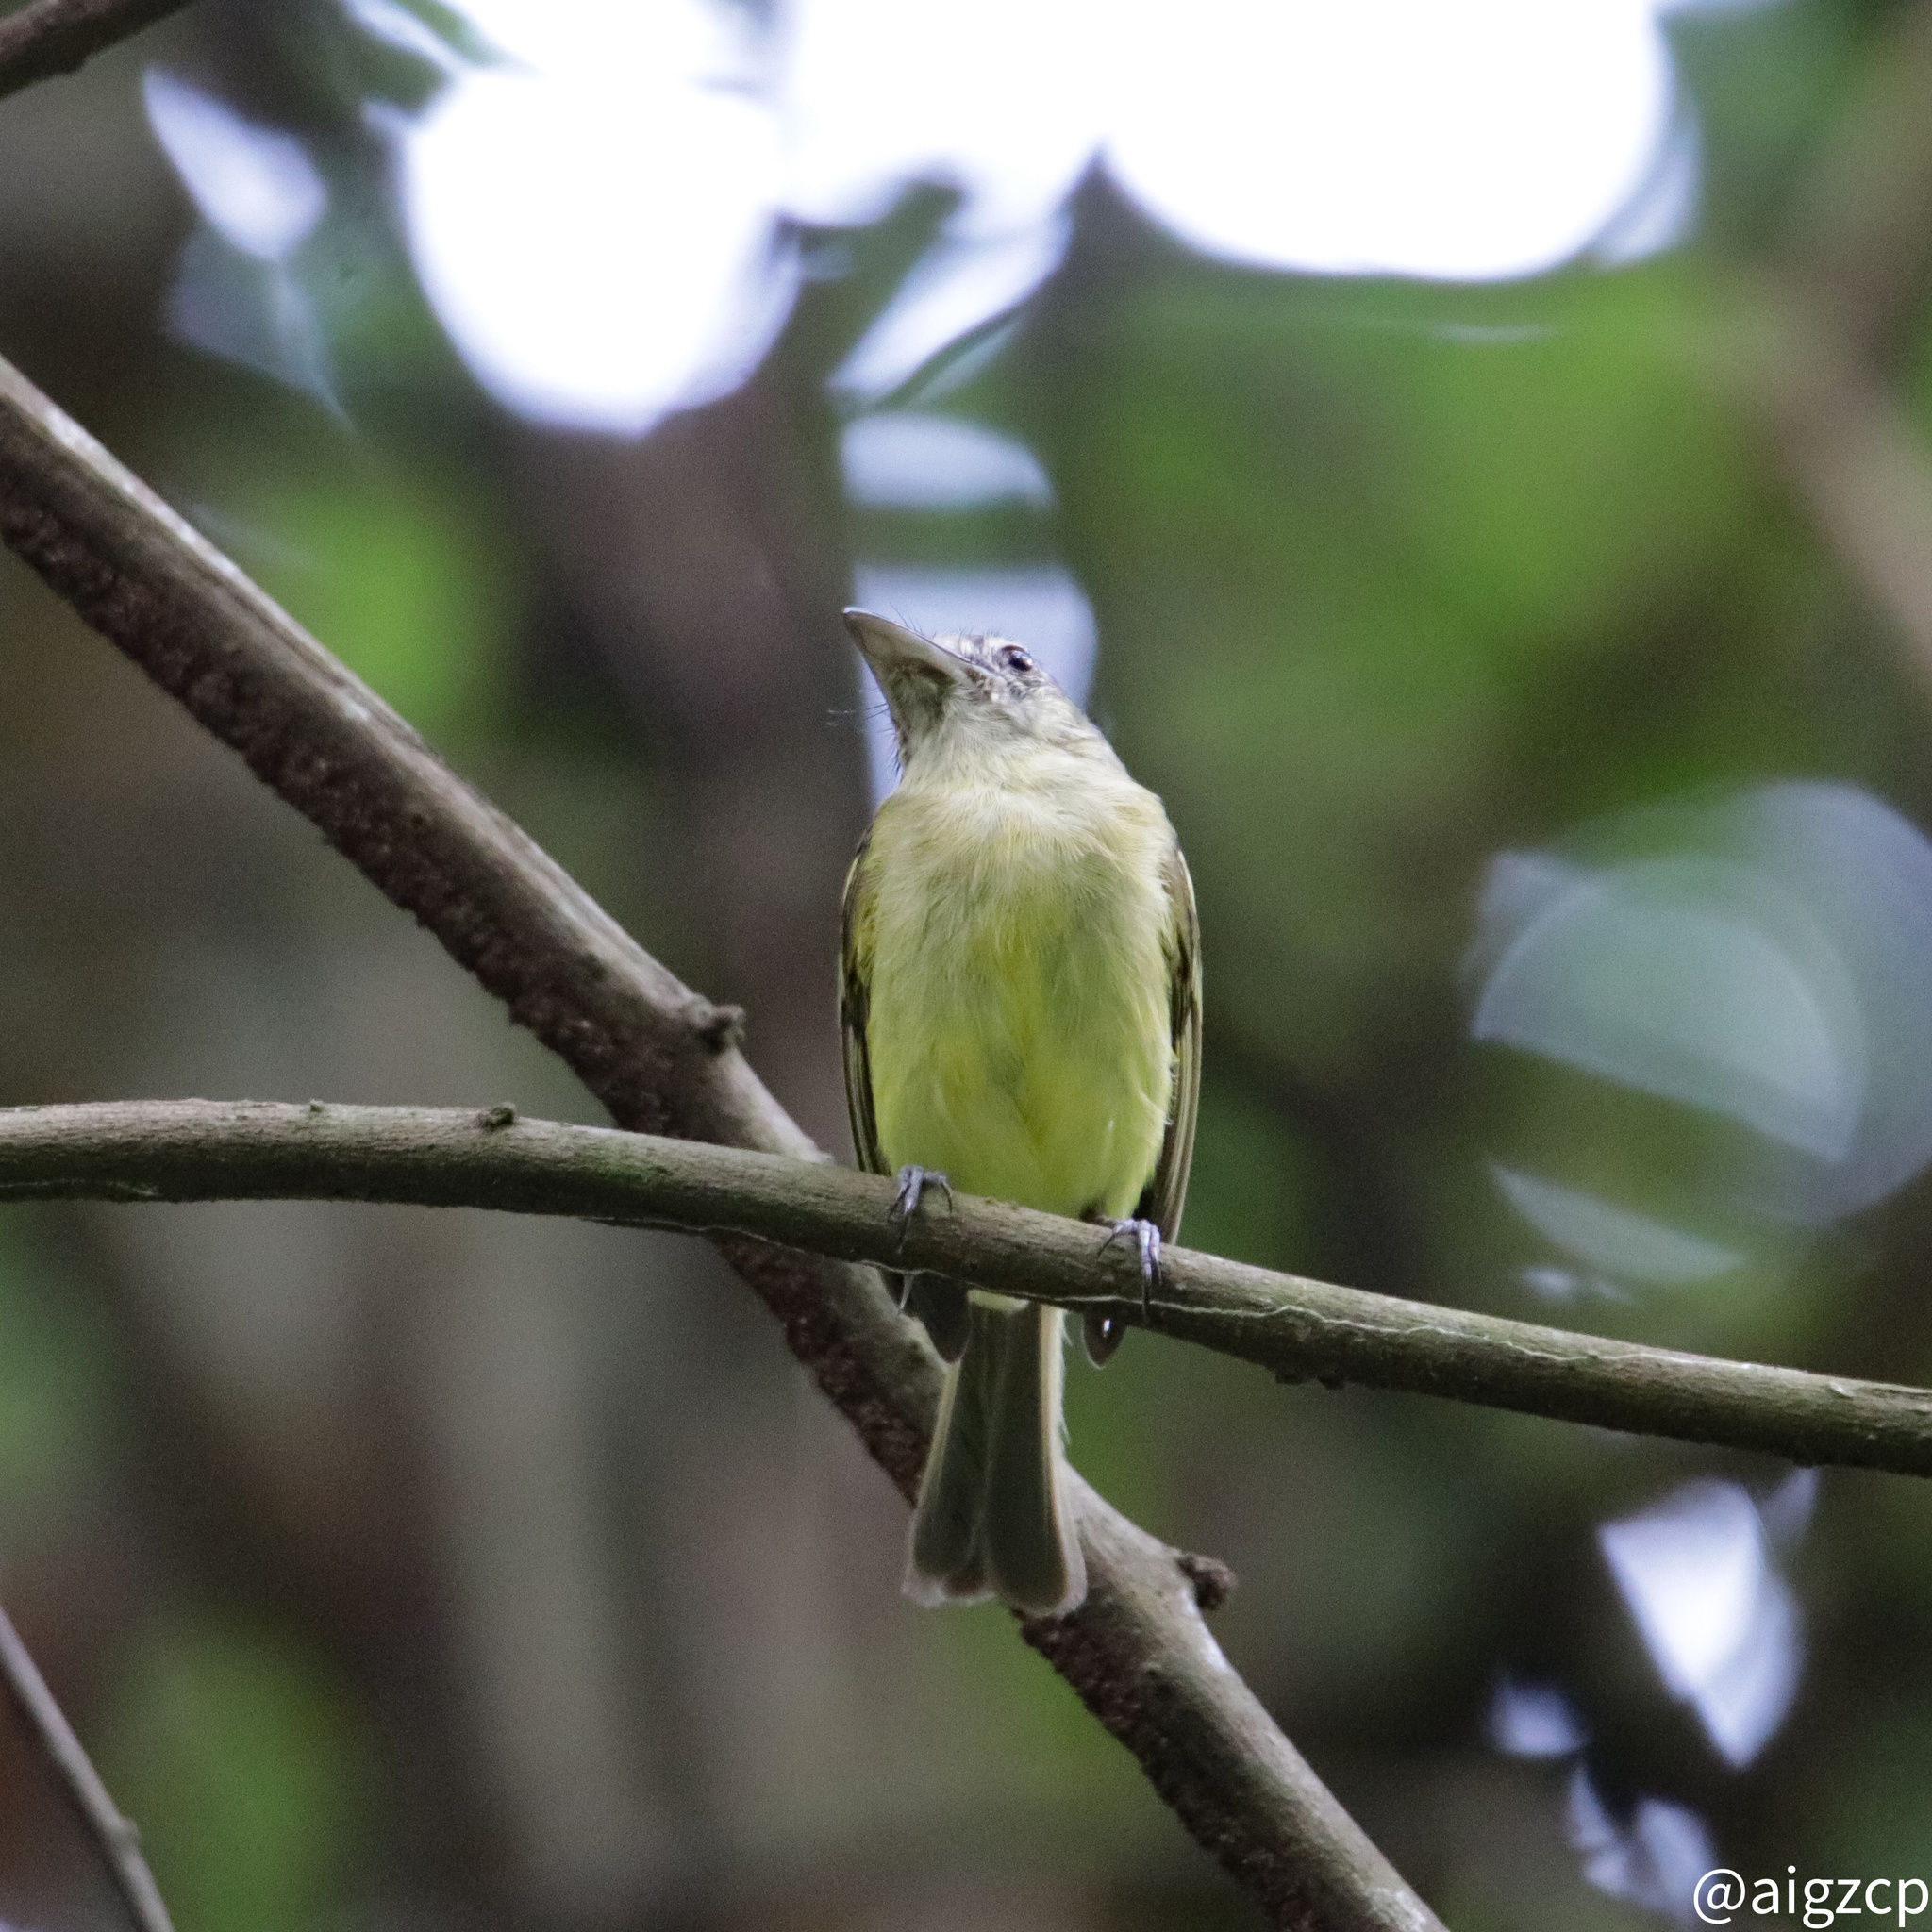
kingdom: Animalia
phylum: Chordata
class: Aves
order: Passeriformes
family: Tyrannidae
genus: Tolmomyias
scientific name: Tolmomyias sulphurescens
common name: Yellow-olive flycatcher
